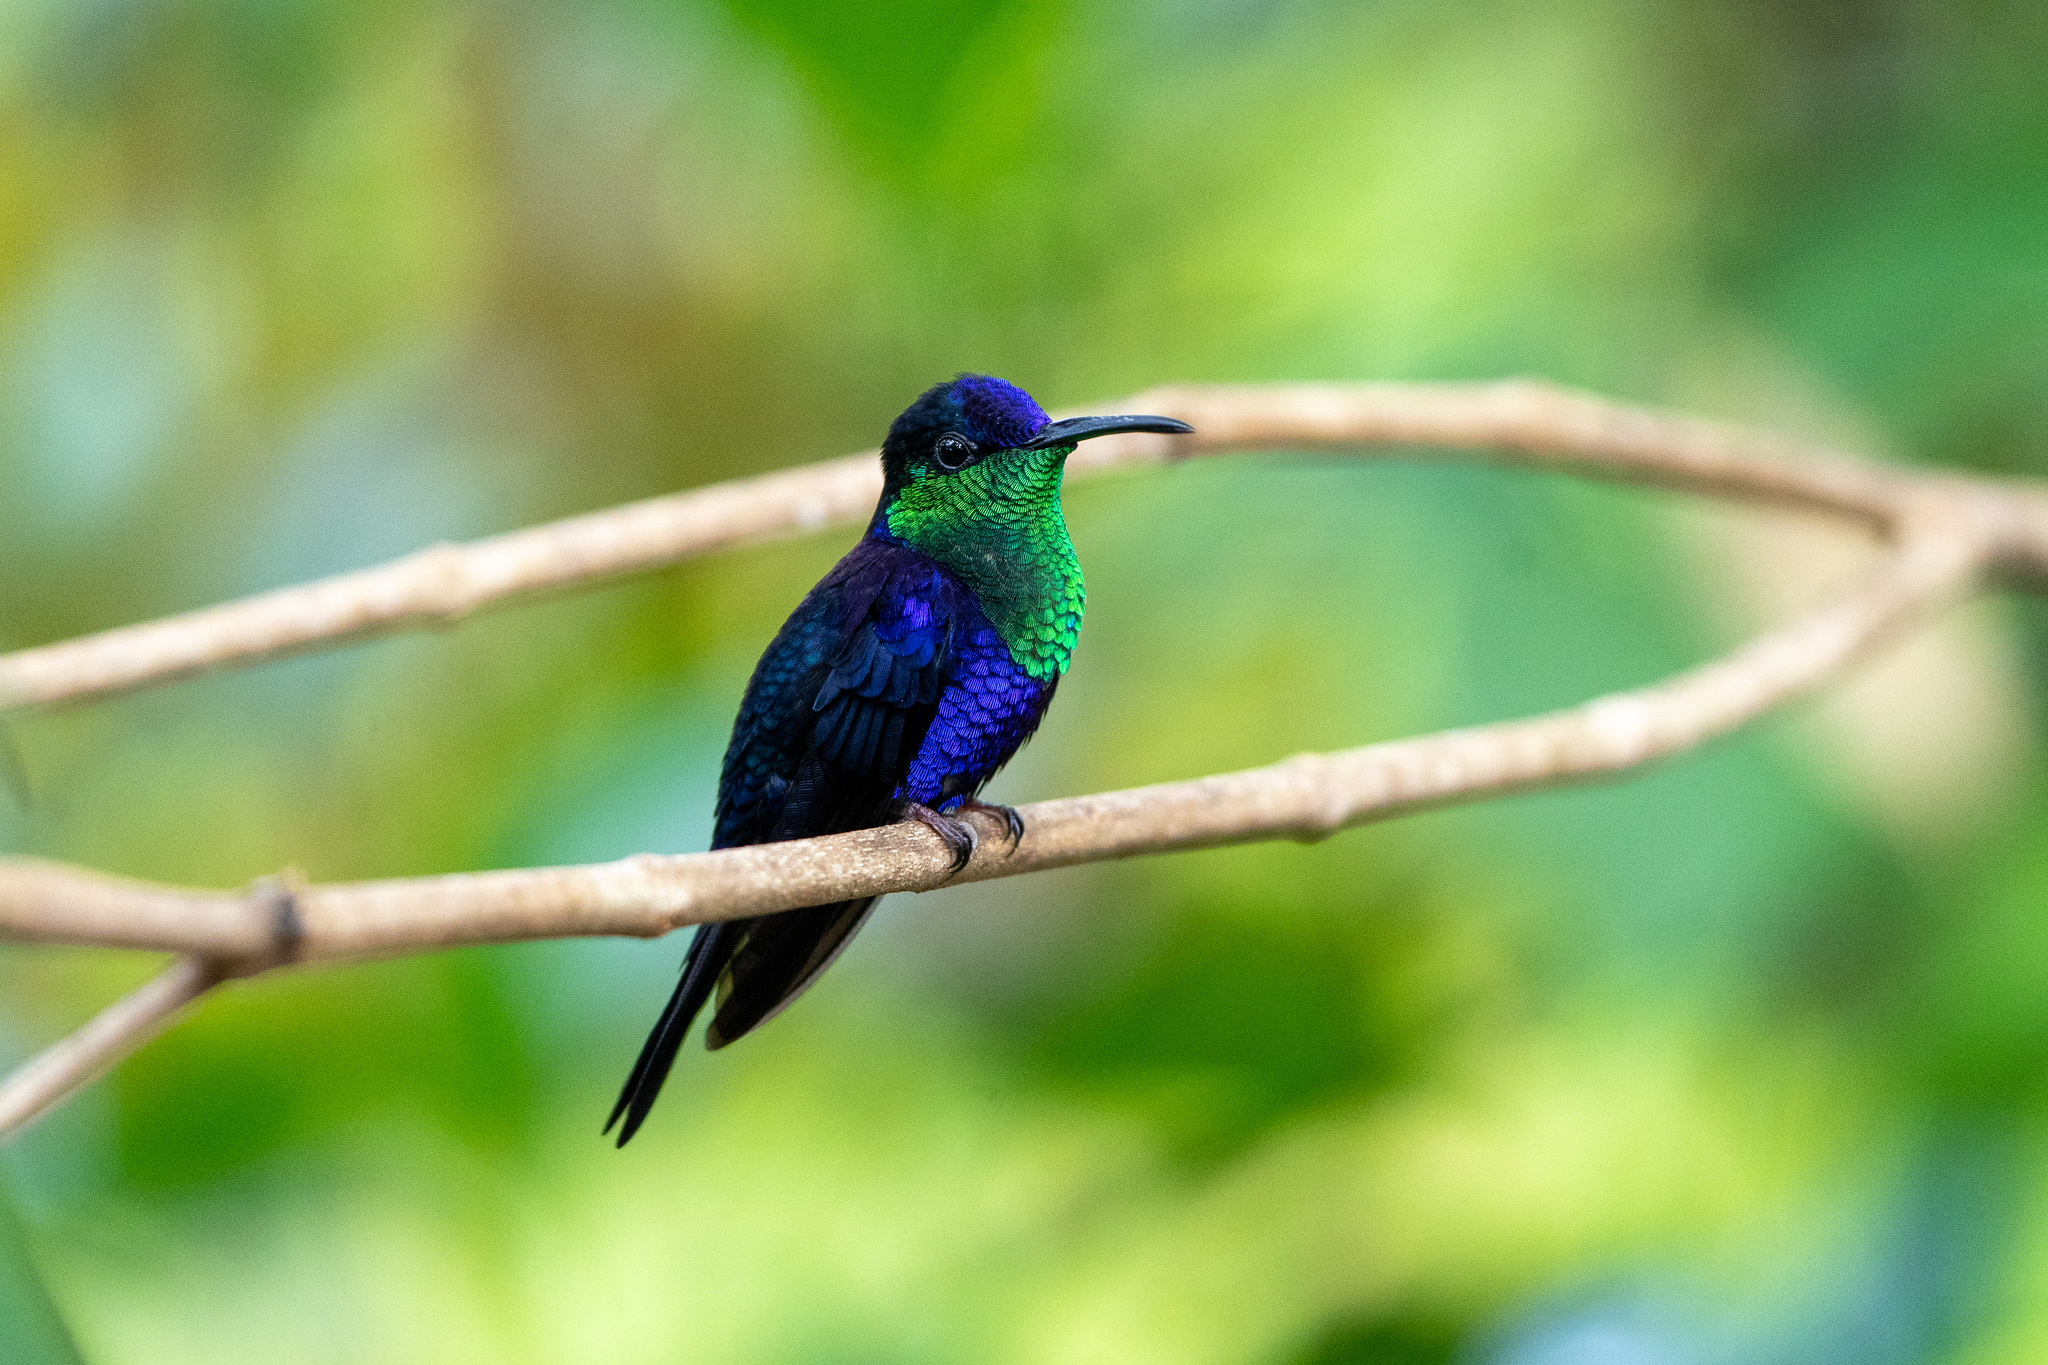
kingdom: Animalia
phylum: Chordata
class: Aves
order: Apodiformes
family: Trochilidae
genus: Thalurania
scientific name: Thalurania colombica
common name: Crowned woodnymph
